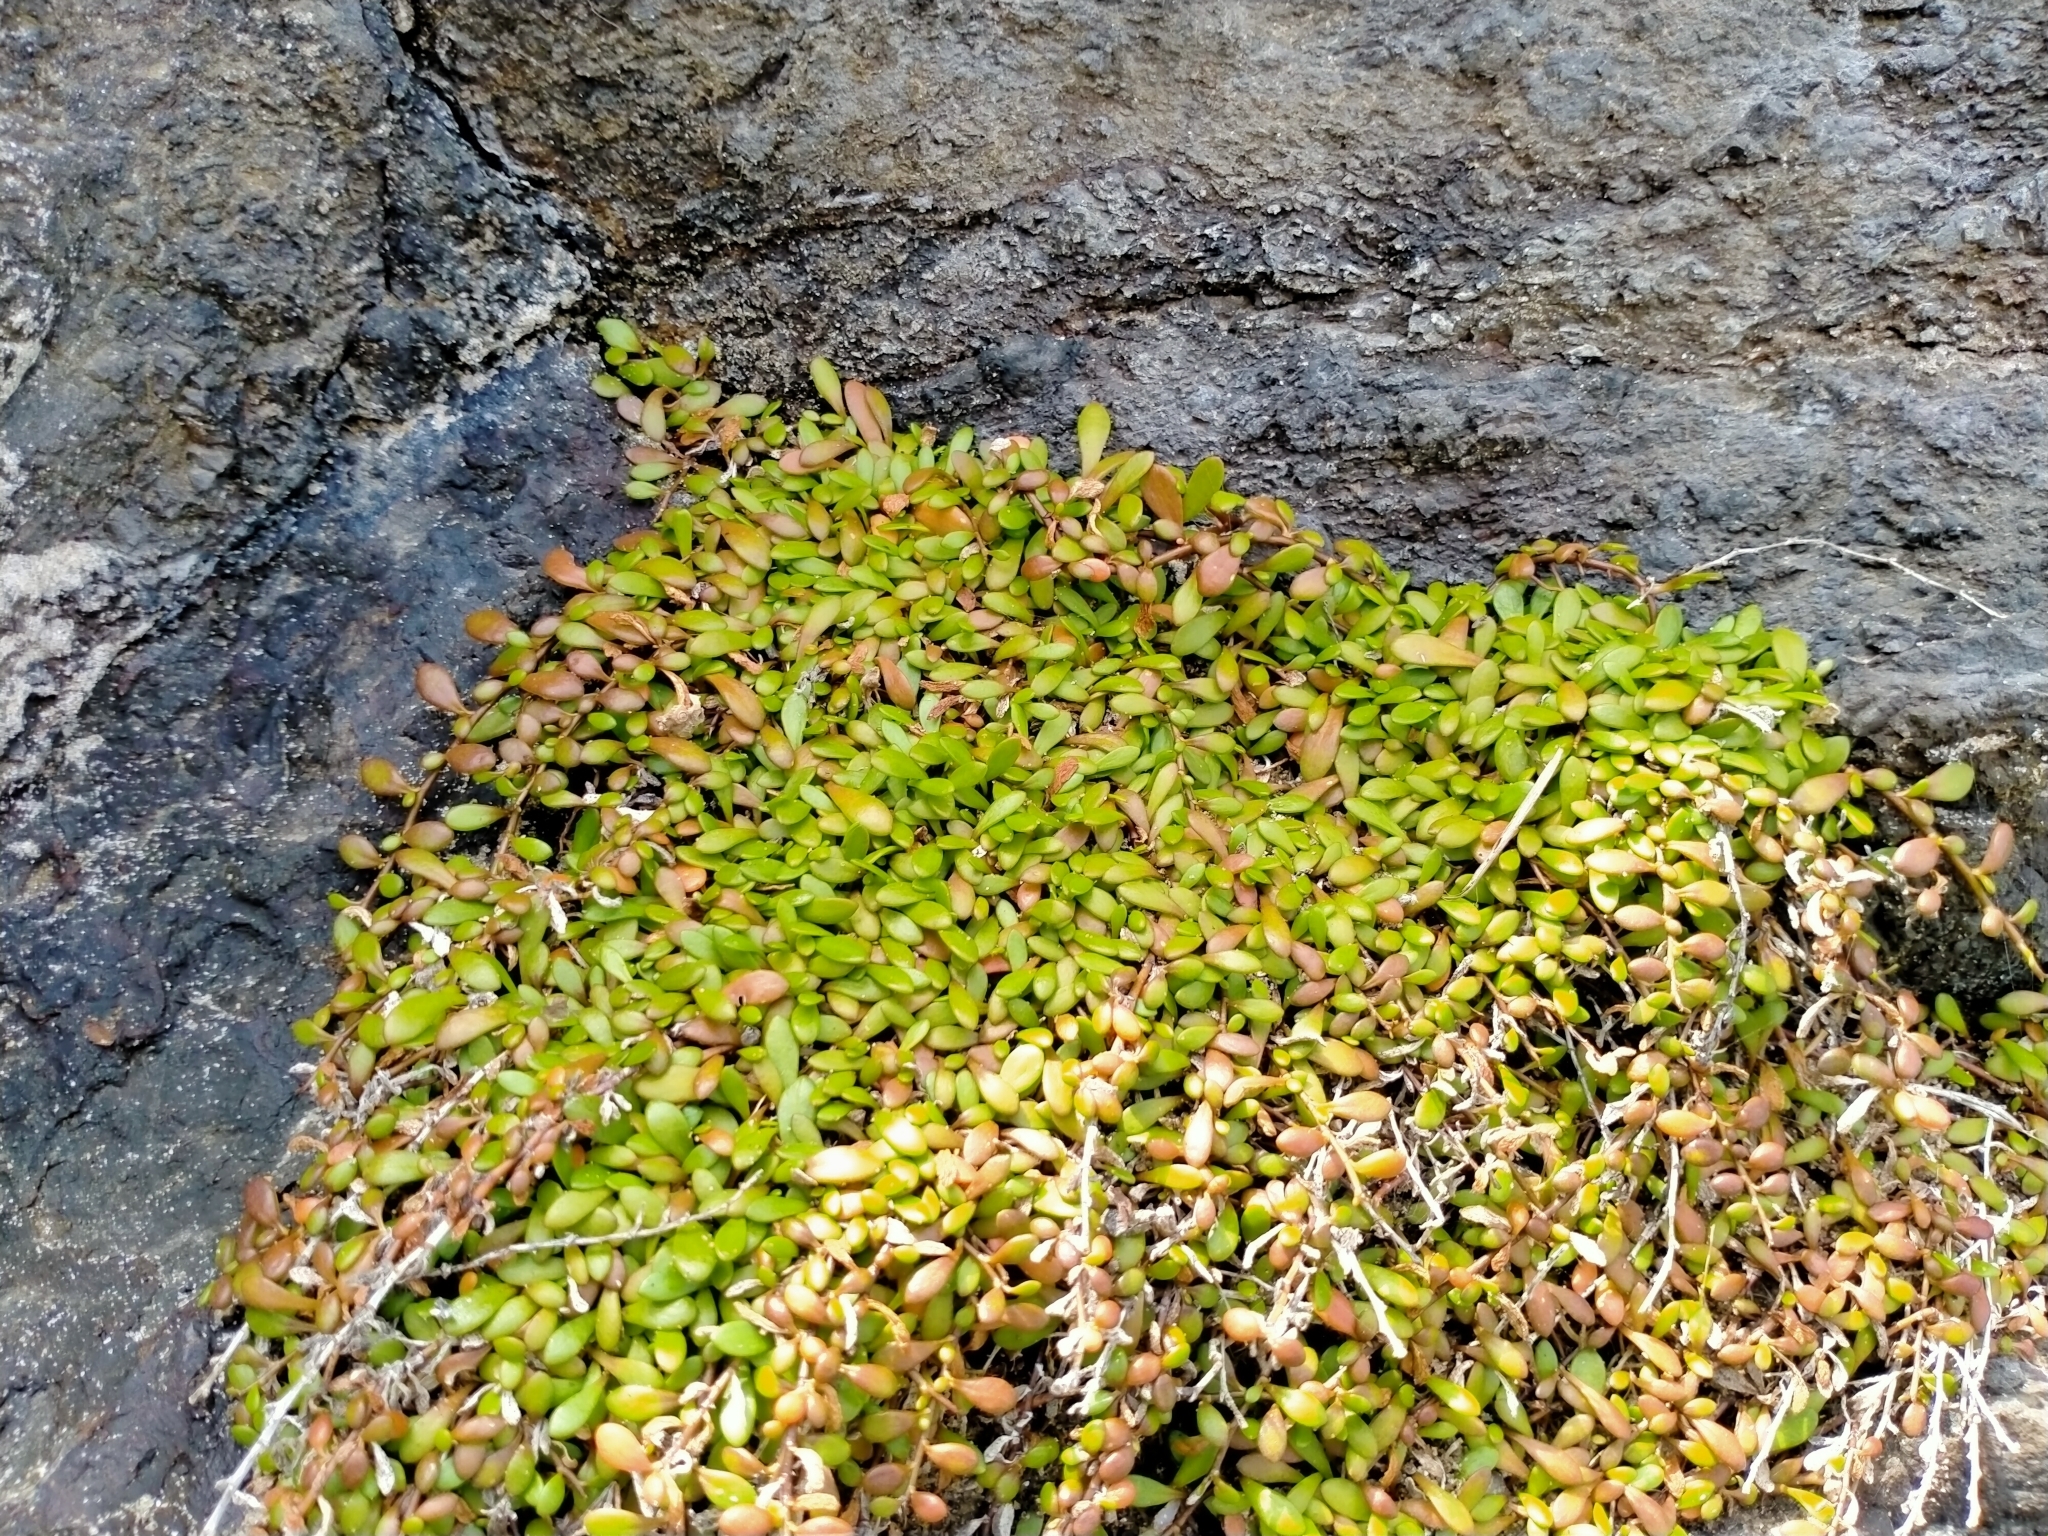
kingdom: Plantae
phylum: Tracheophyta
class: Magnoliopsida
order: Asterales
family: Goodeniaceae
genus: Goodenia
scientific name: Goodenia radicans
